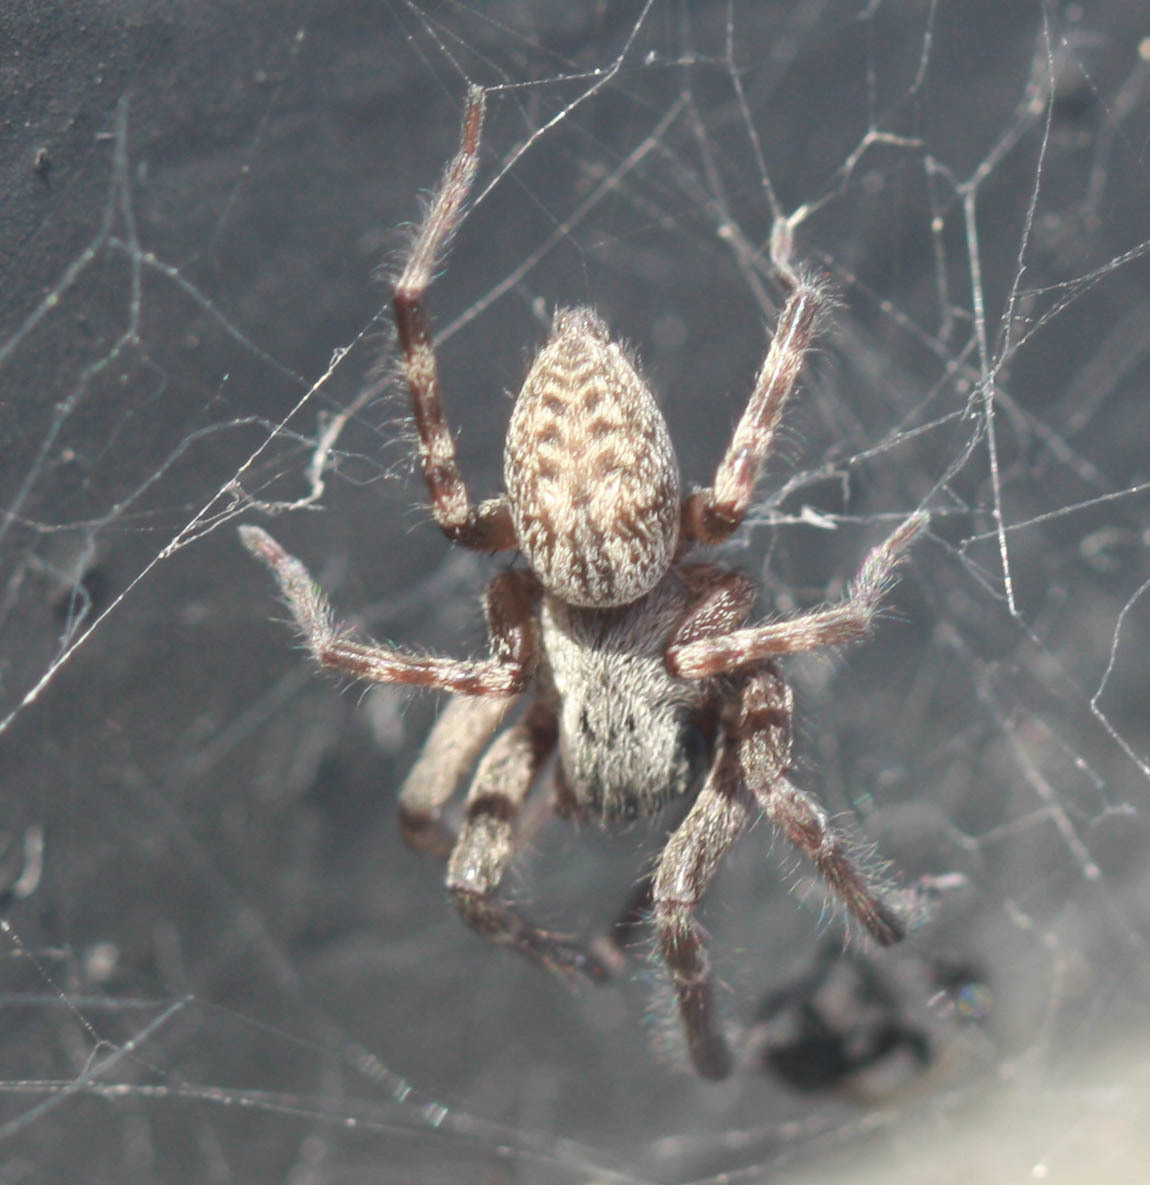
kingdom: Animalia
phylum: Arthropoda
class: Arachnida
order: Araneae
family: Desidae
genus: Badumna
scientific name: Badumna longinqua
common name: Gray house spider
